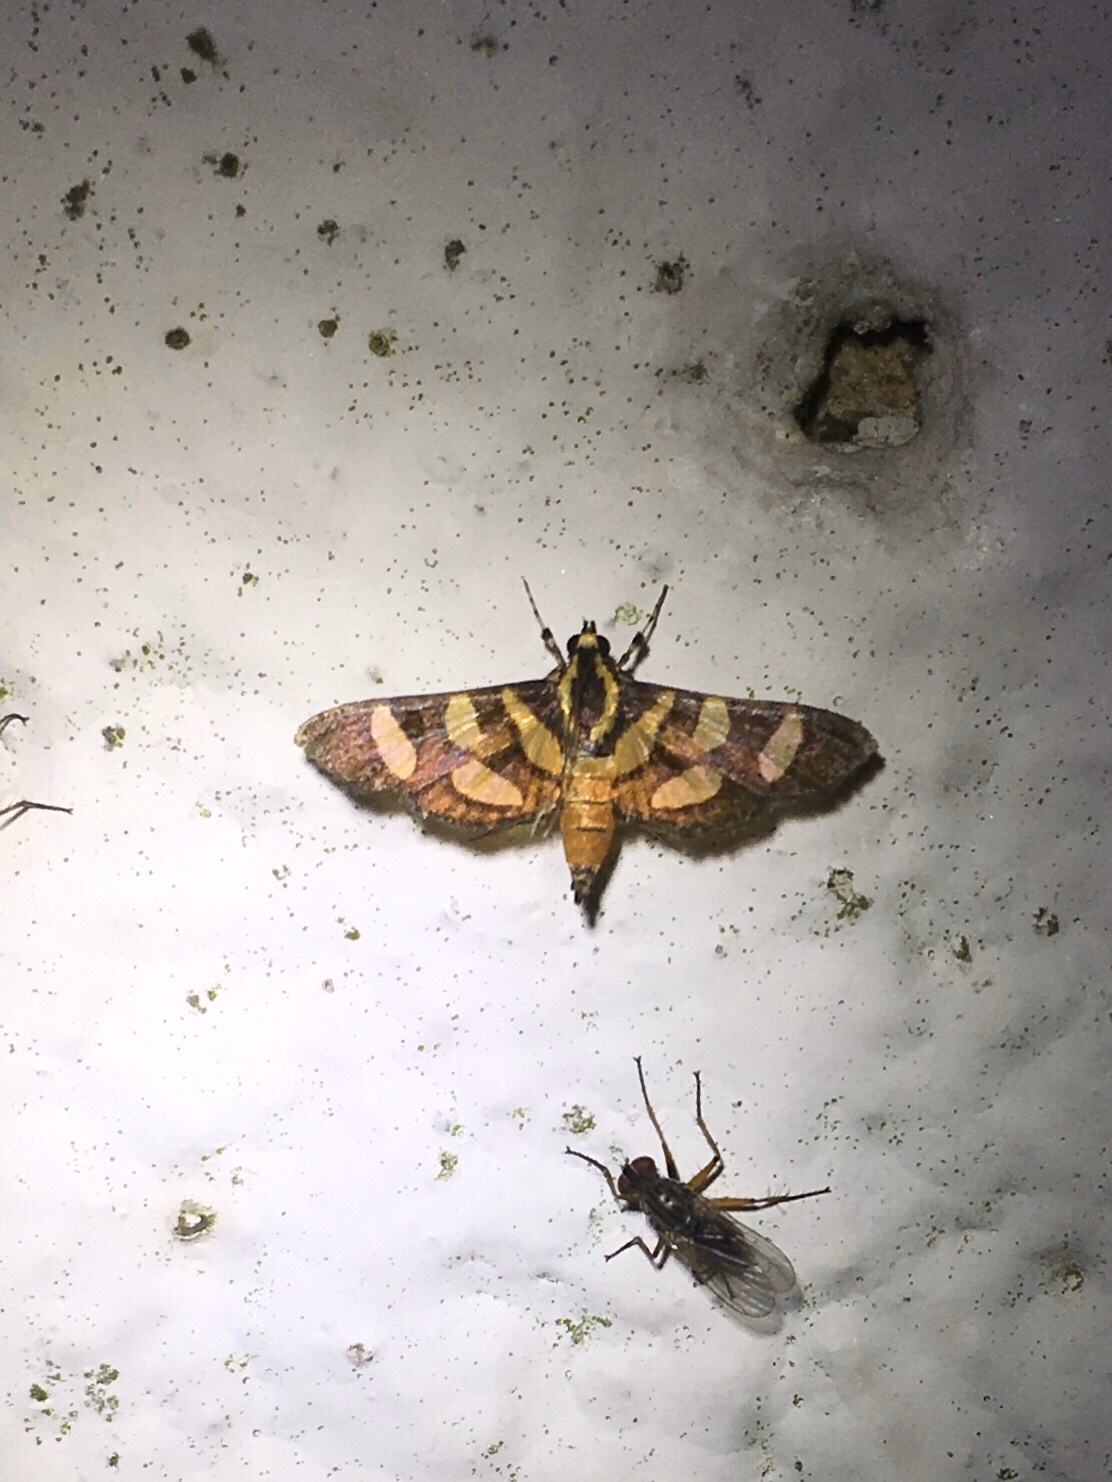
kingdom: Animalia
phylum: Arthropoda
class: Insecta
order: Lepidoptera
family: Crambidae
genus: Syngamia
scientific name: Syngamia florella
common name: Orange-spotted flower moth
